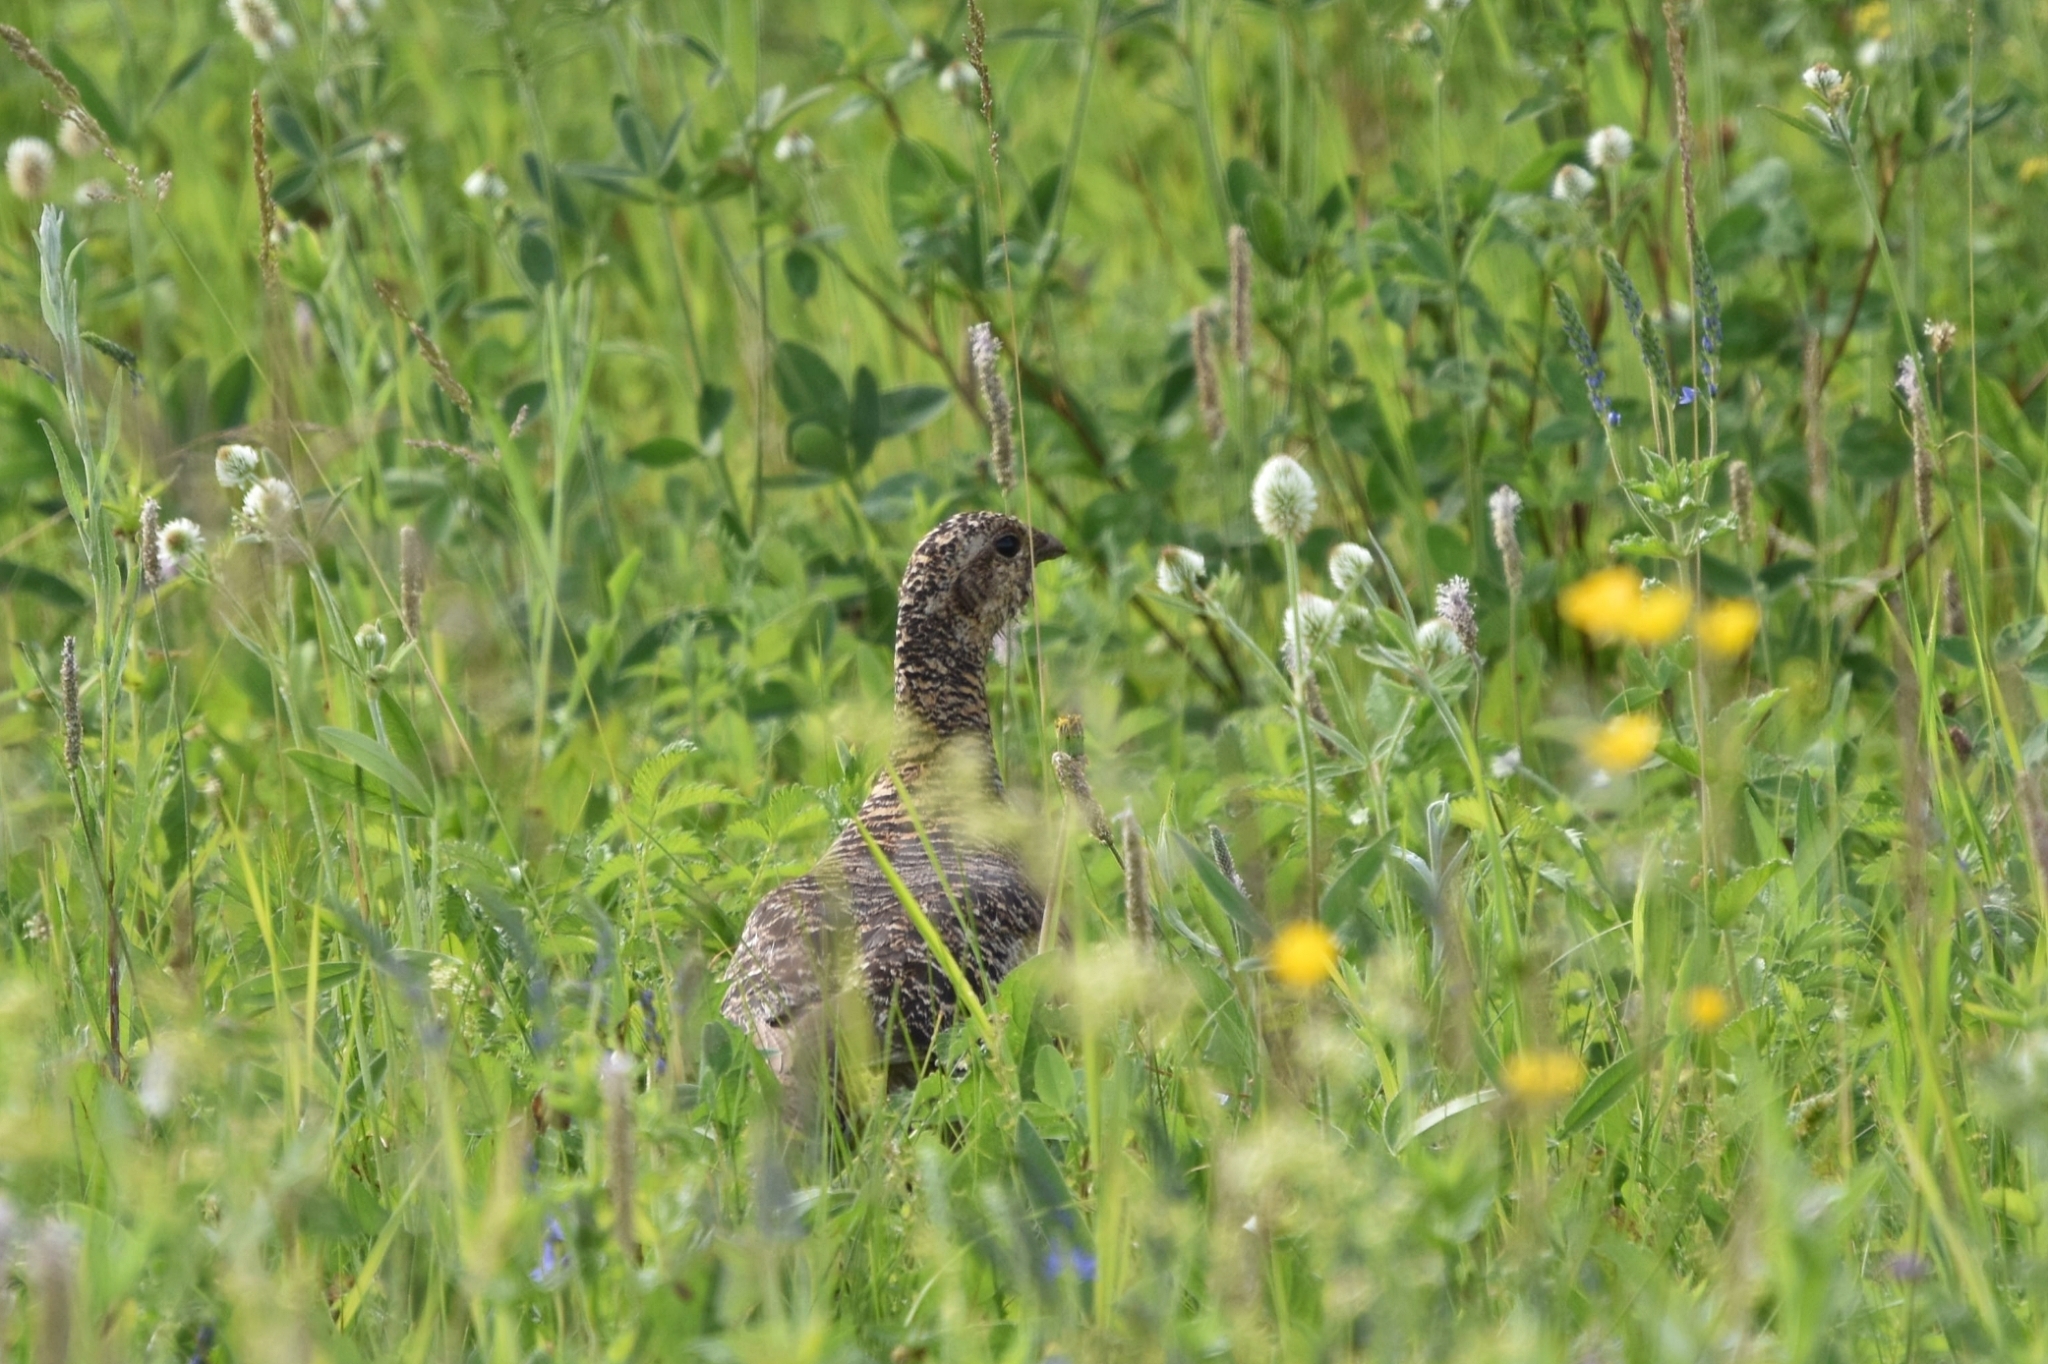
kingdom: Animalia
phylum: Chordata
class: Aves
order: Galliformes
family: Phasianidae
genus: Lyrurus
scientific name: Lyrurus tetrix
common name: Black grouse
